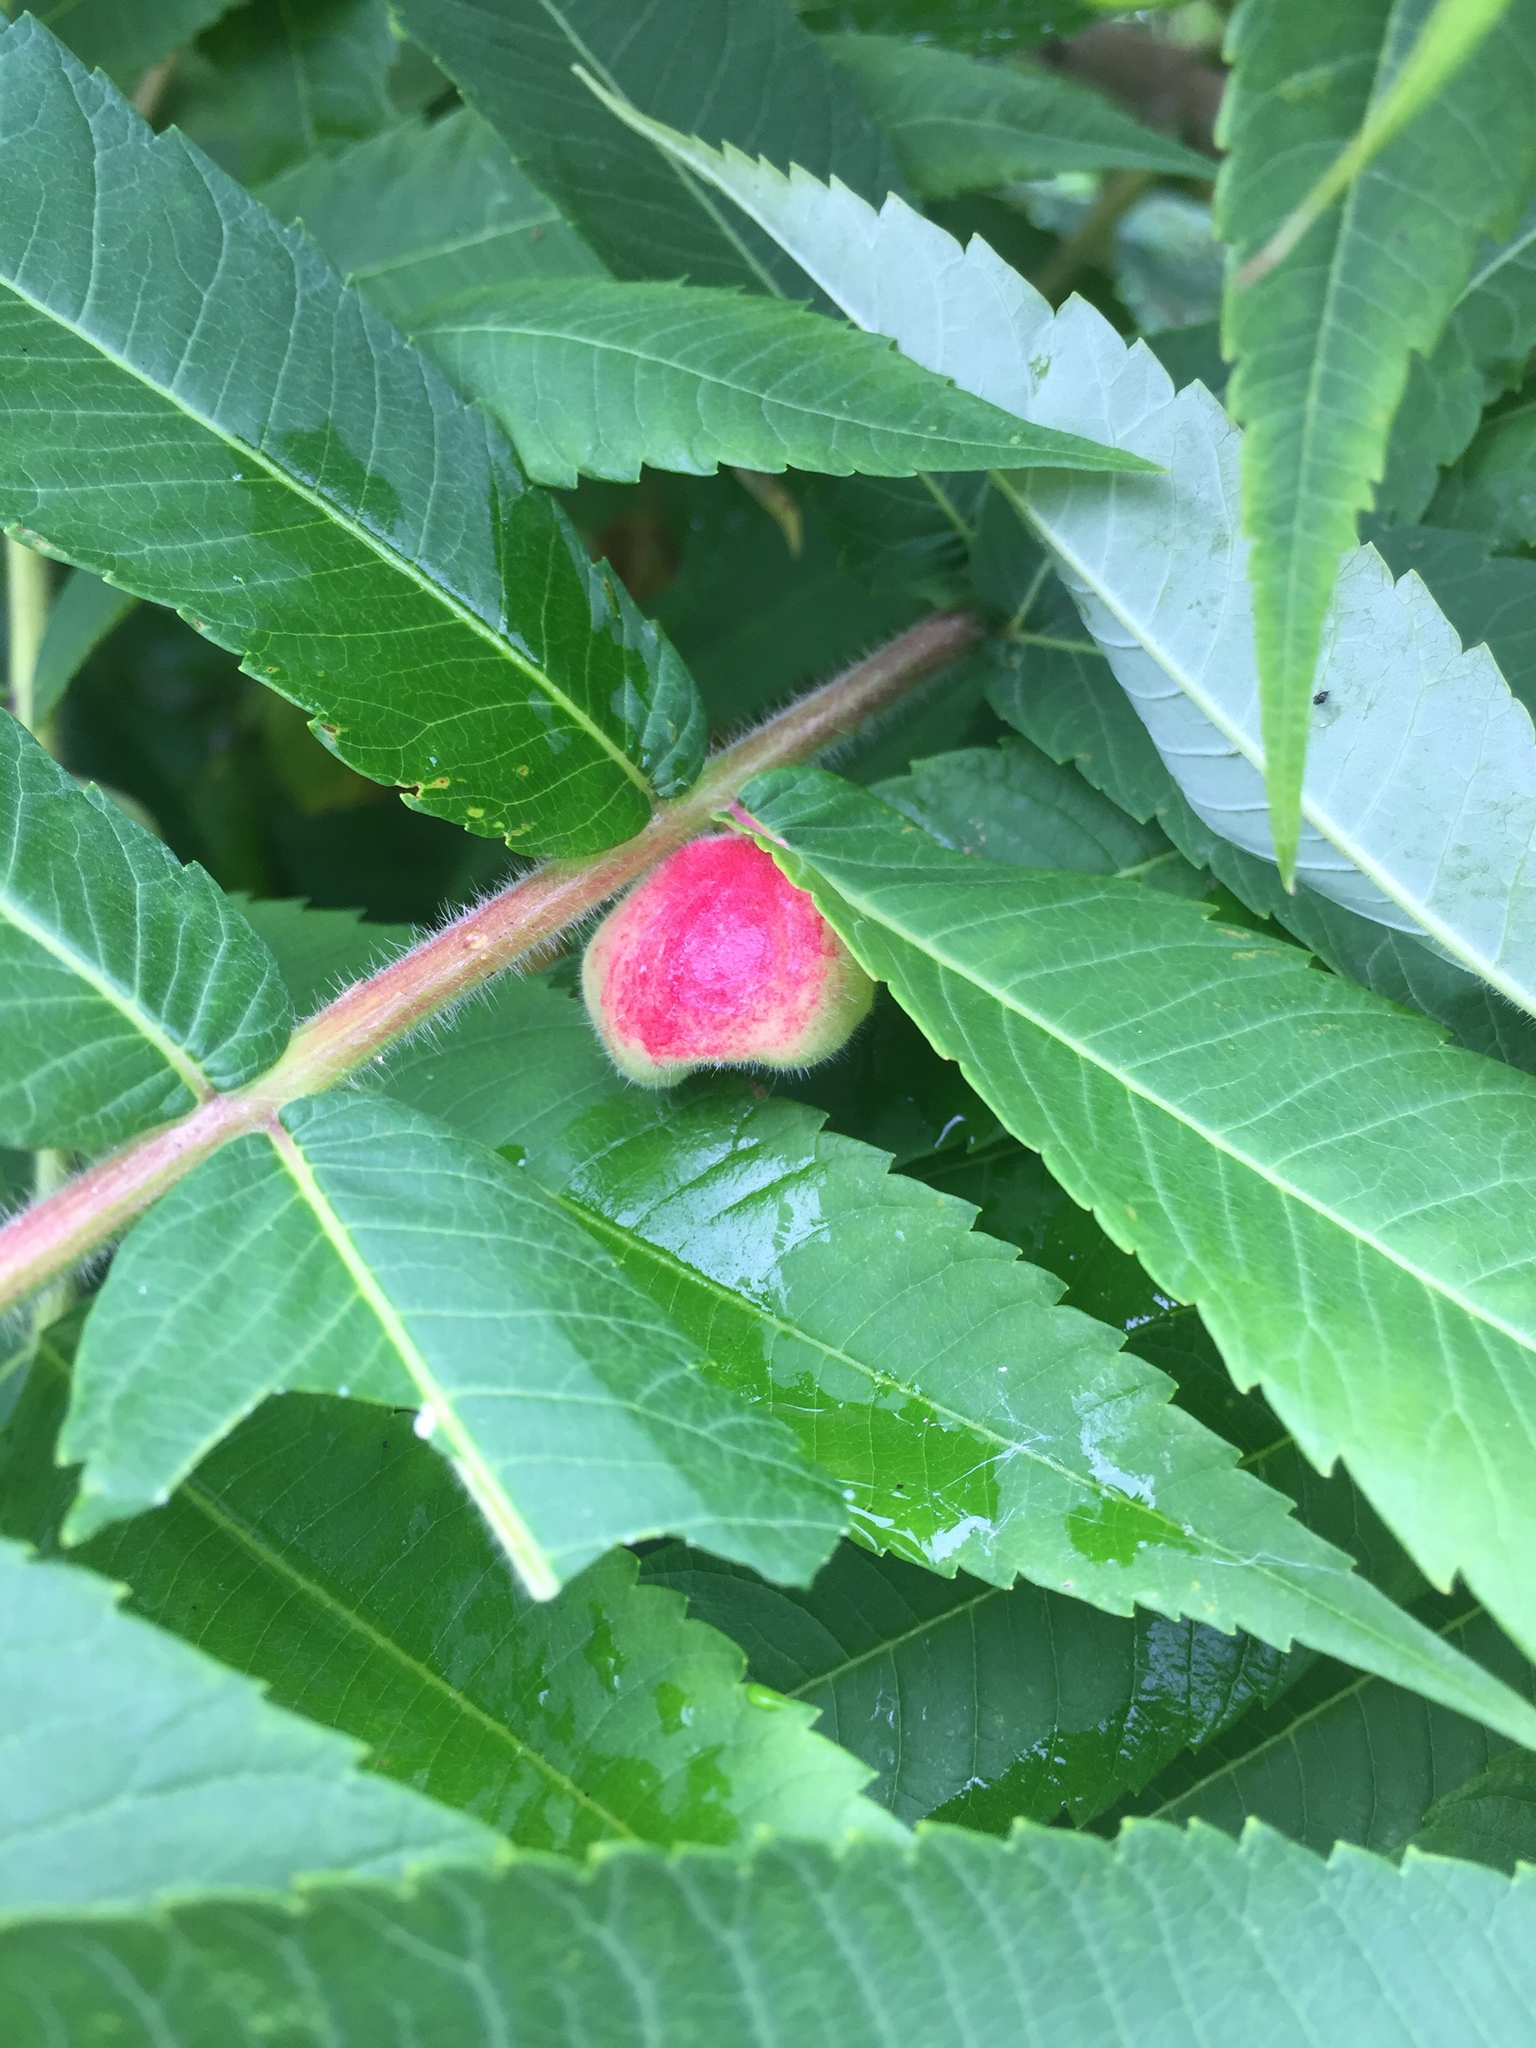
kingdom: Animalia
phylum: Arthropoda
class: Insecta
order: Hemiptera
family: Aphididae
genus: Melaphis
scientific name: Melaphis rhois
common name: Sumac gall aphid
